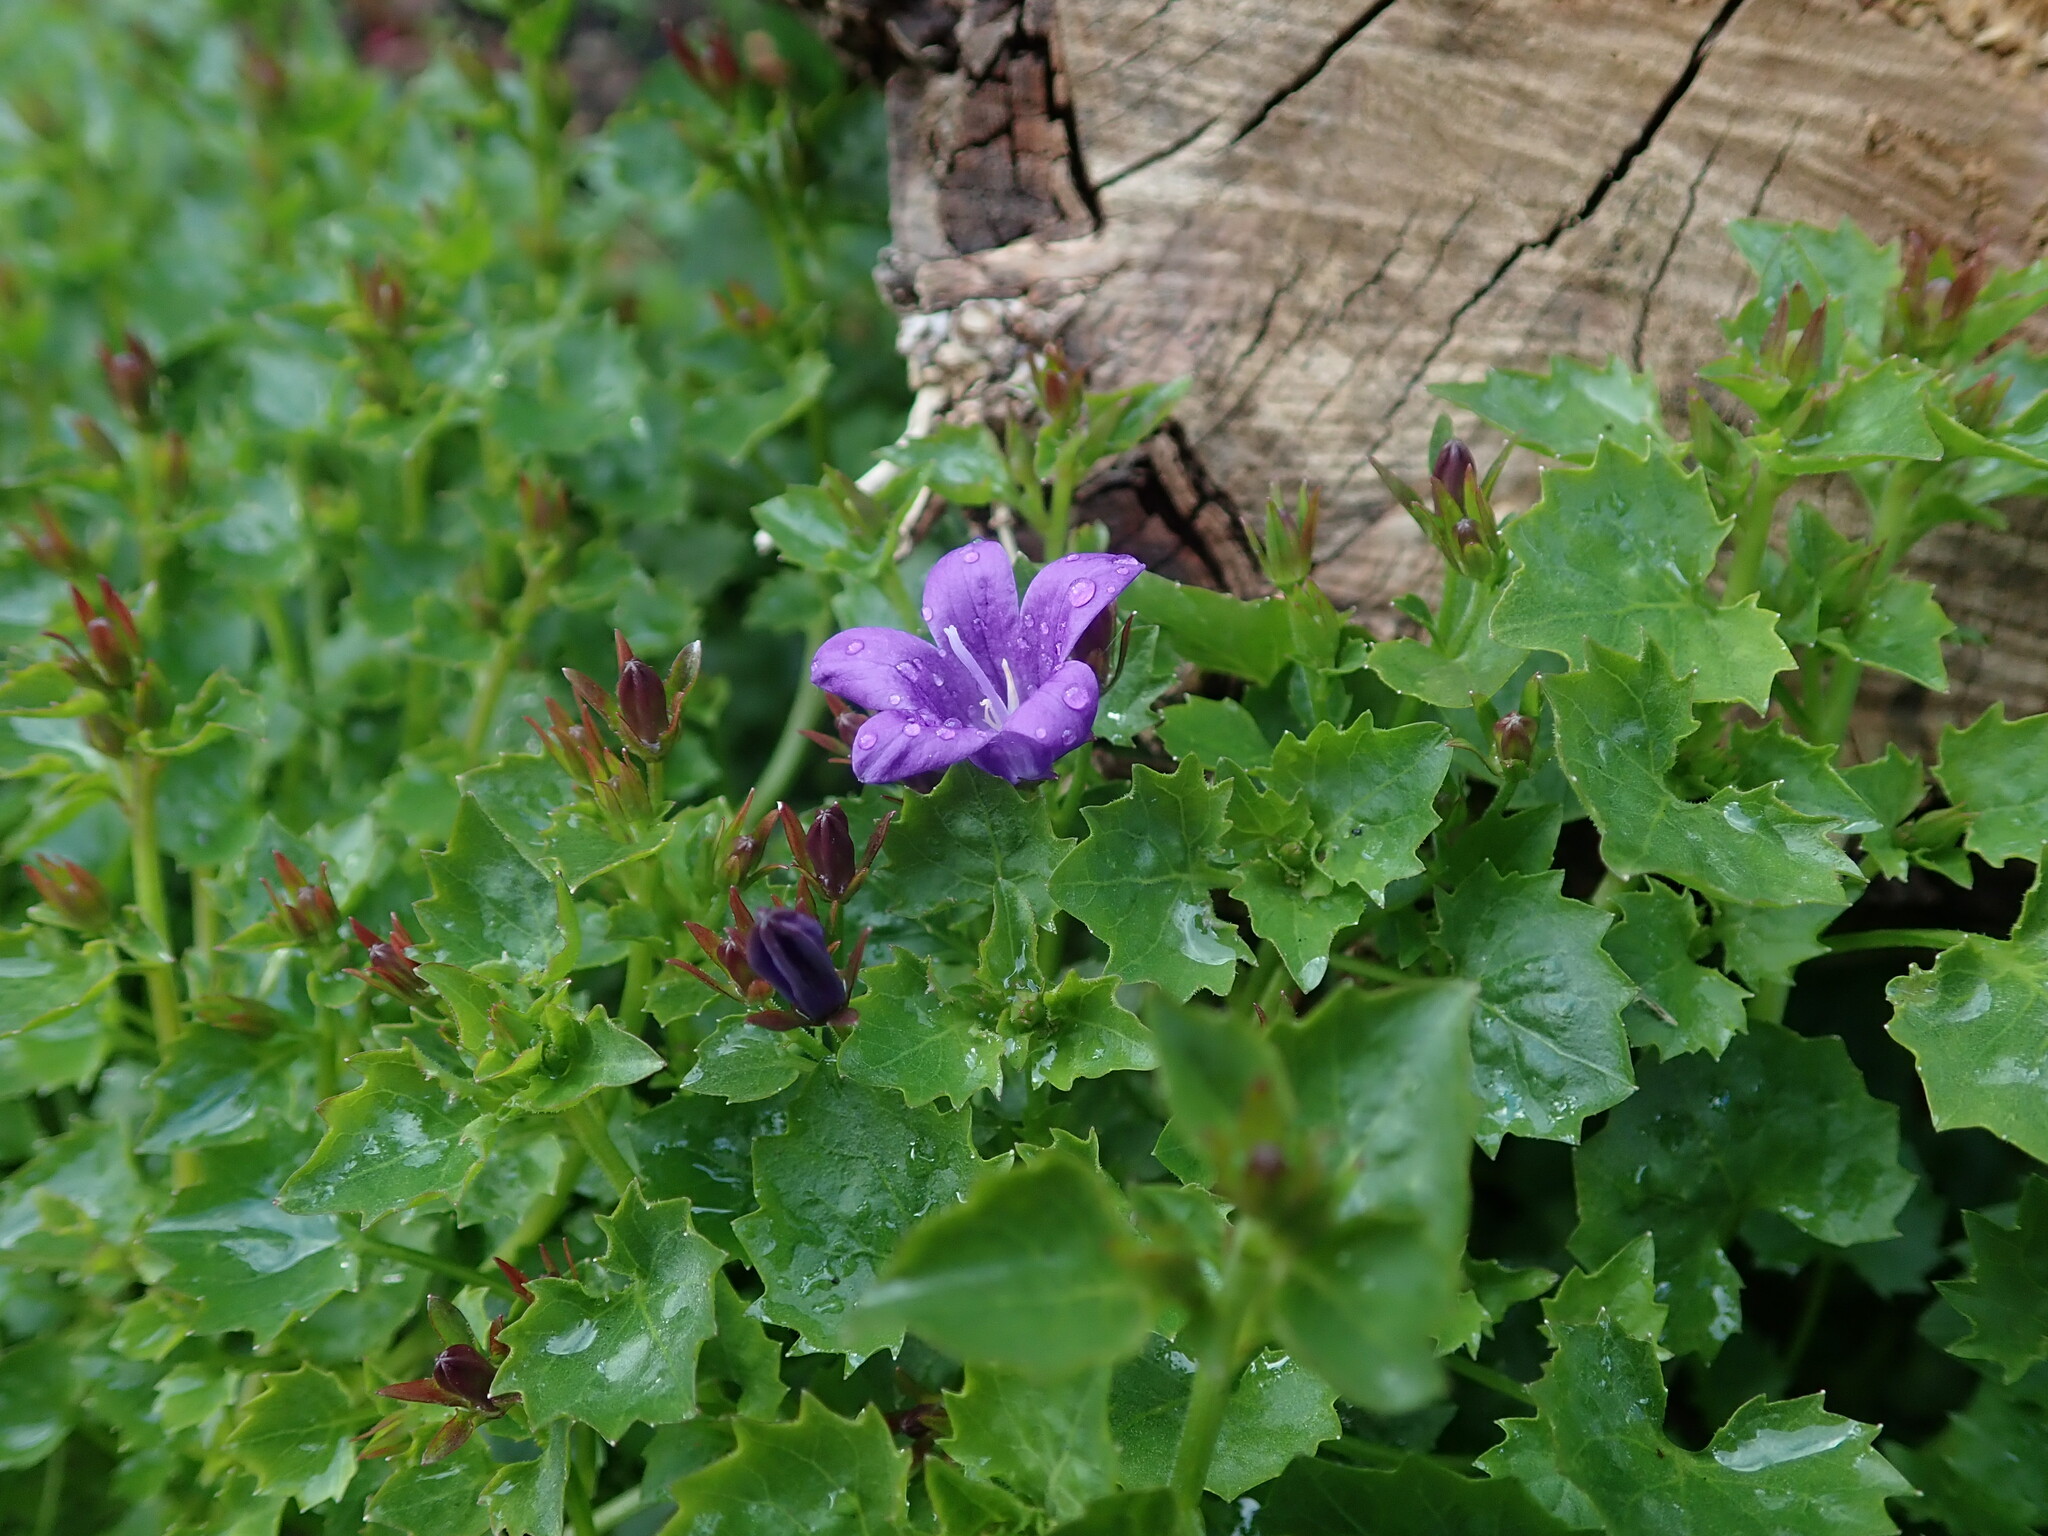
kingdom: Plantae
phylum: Tracheophyta
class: Magnoliopsida
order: Asterales
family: Campanulaceae
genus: Campanula
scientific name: Campanula portenschlagiana
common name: Adria bellflower
